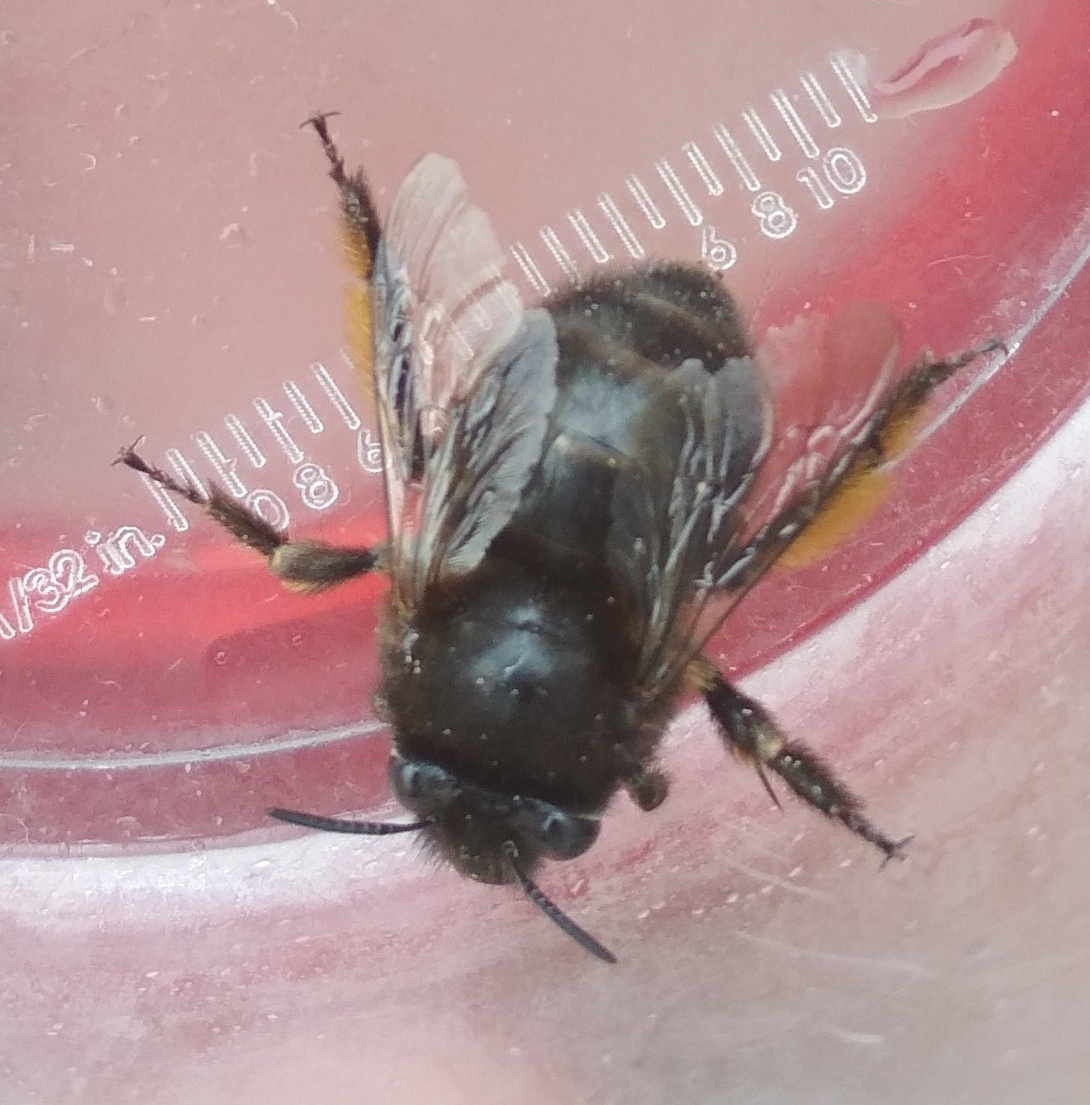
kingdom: Animalia
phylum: Arthropoda
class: Insecta
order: Hymenoptera
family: Apidae
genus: Anthophora
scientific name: Anthophora plumipes
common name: Hairy-footed flower bee
